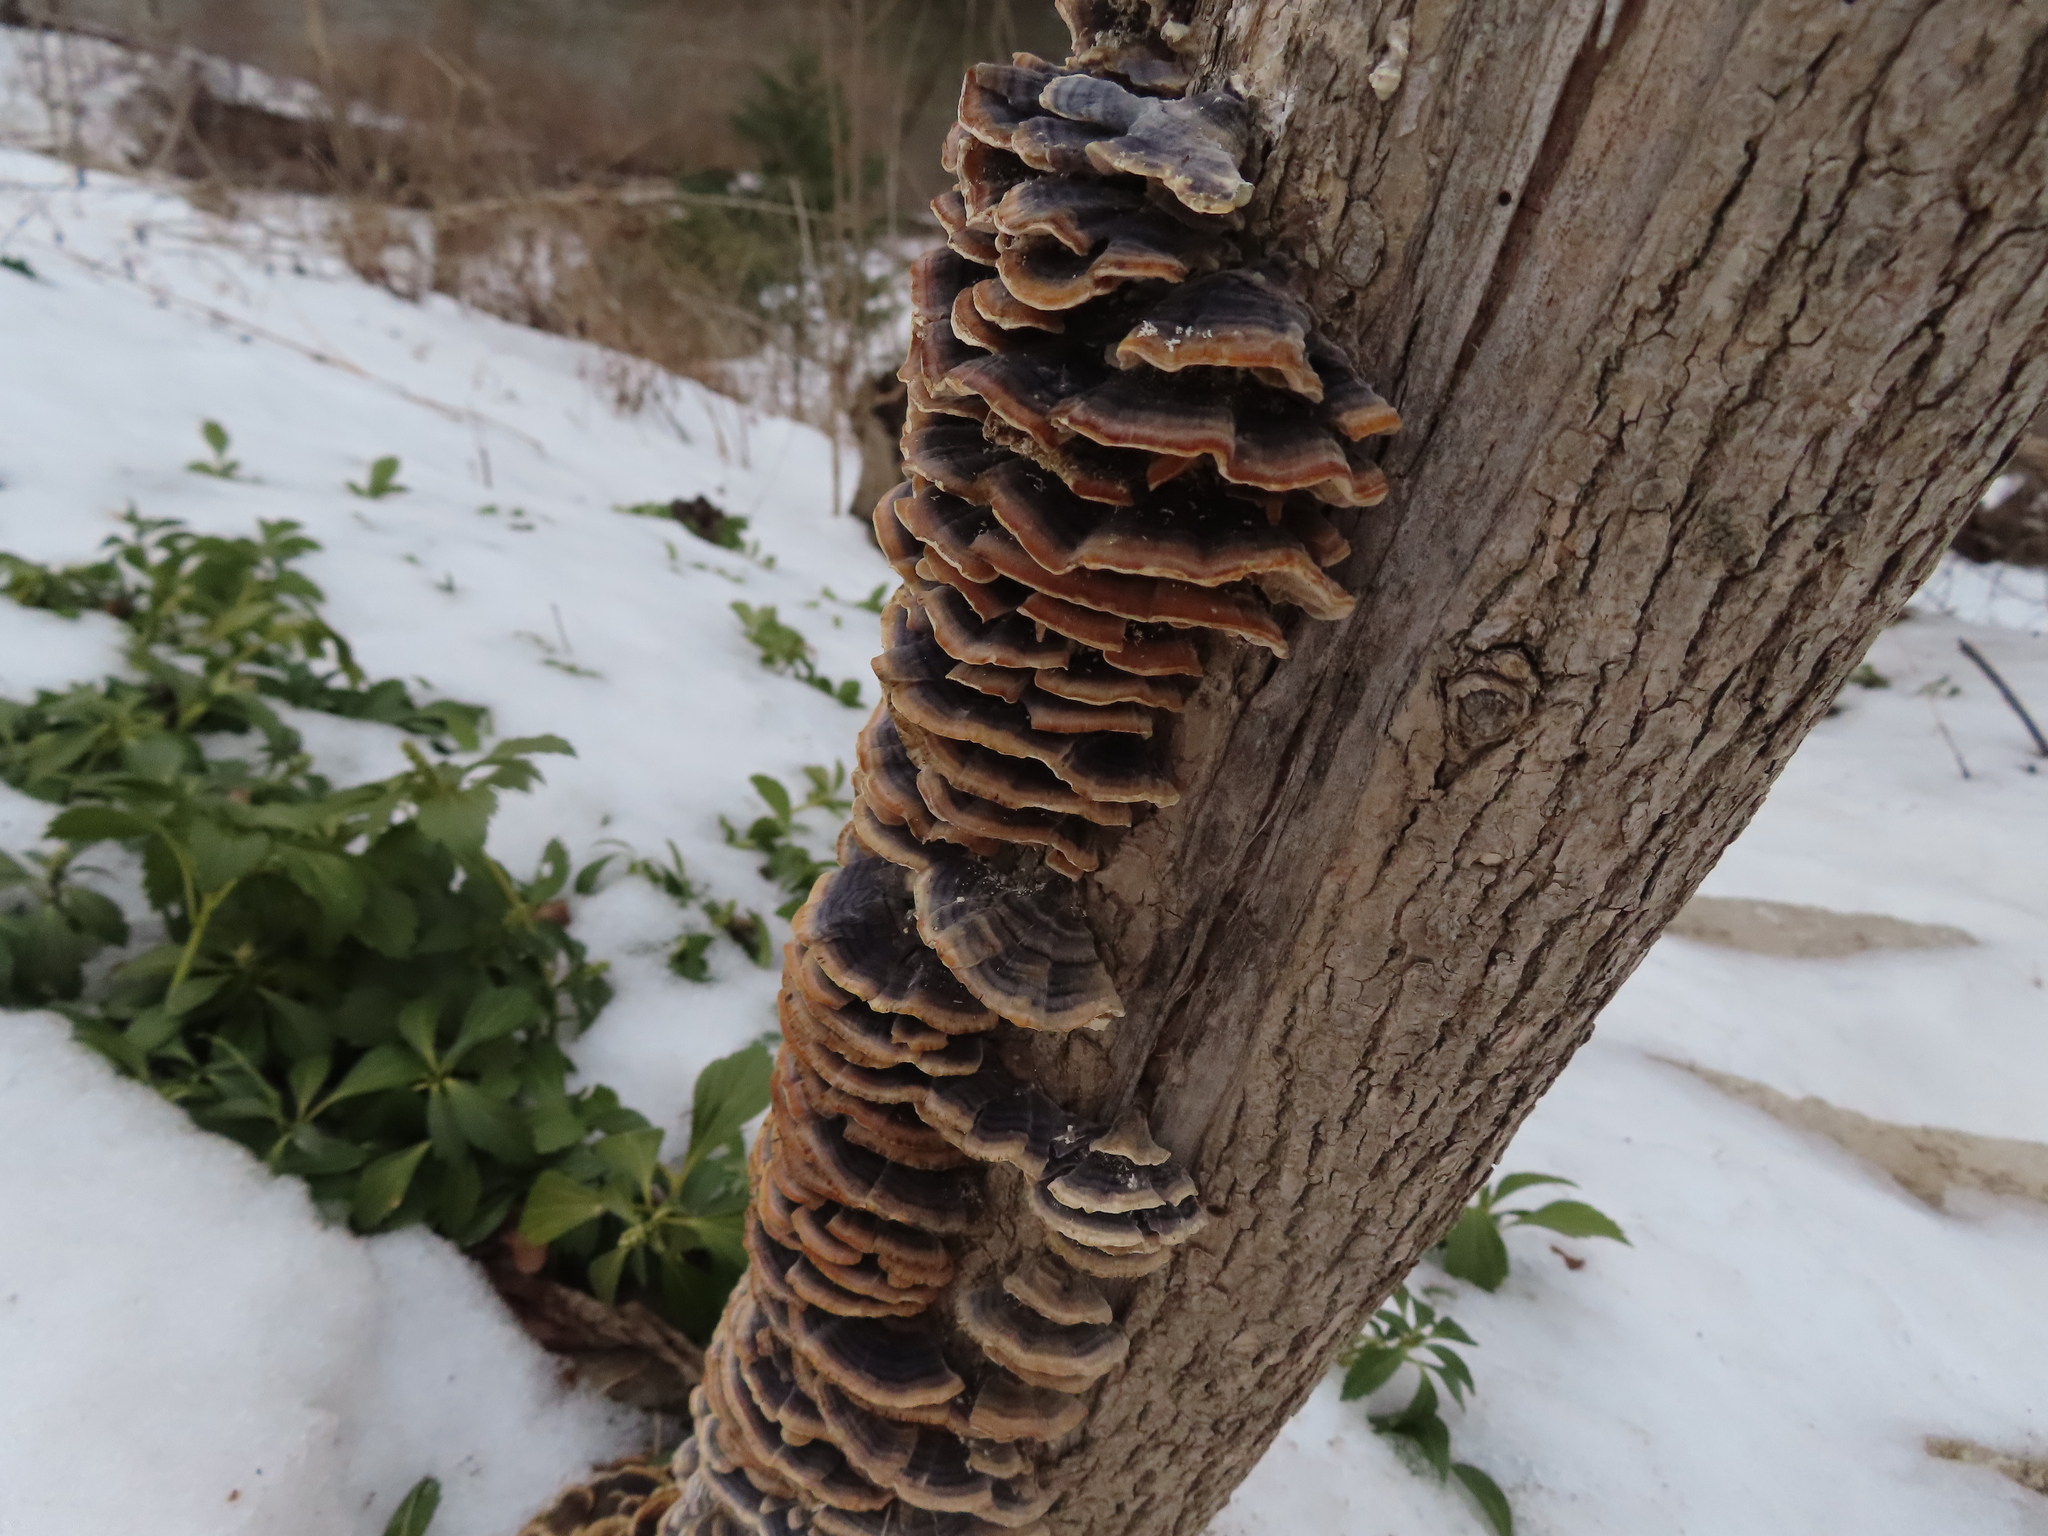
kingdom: Fungi
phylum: Basidiomycota
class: Agaricomycetes
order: Polyporales
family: Polyporaceae
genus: Trametes
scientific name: Trametes versicolor
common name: Turkeytail
